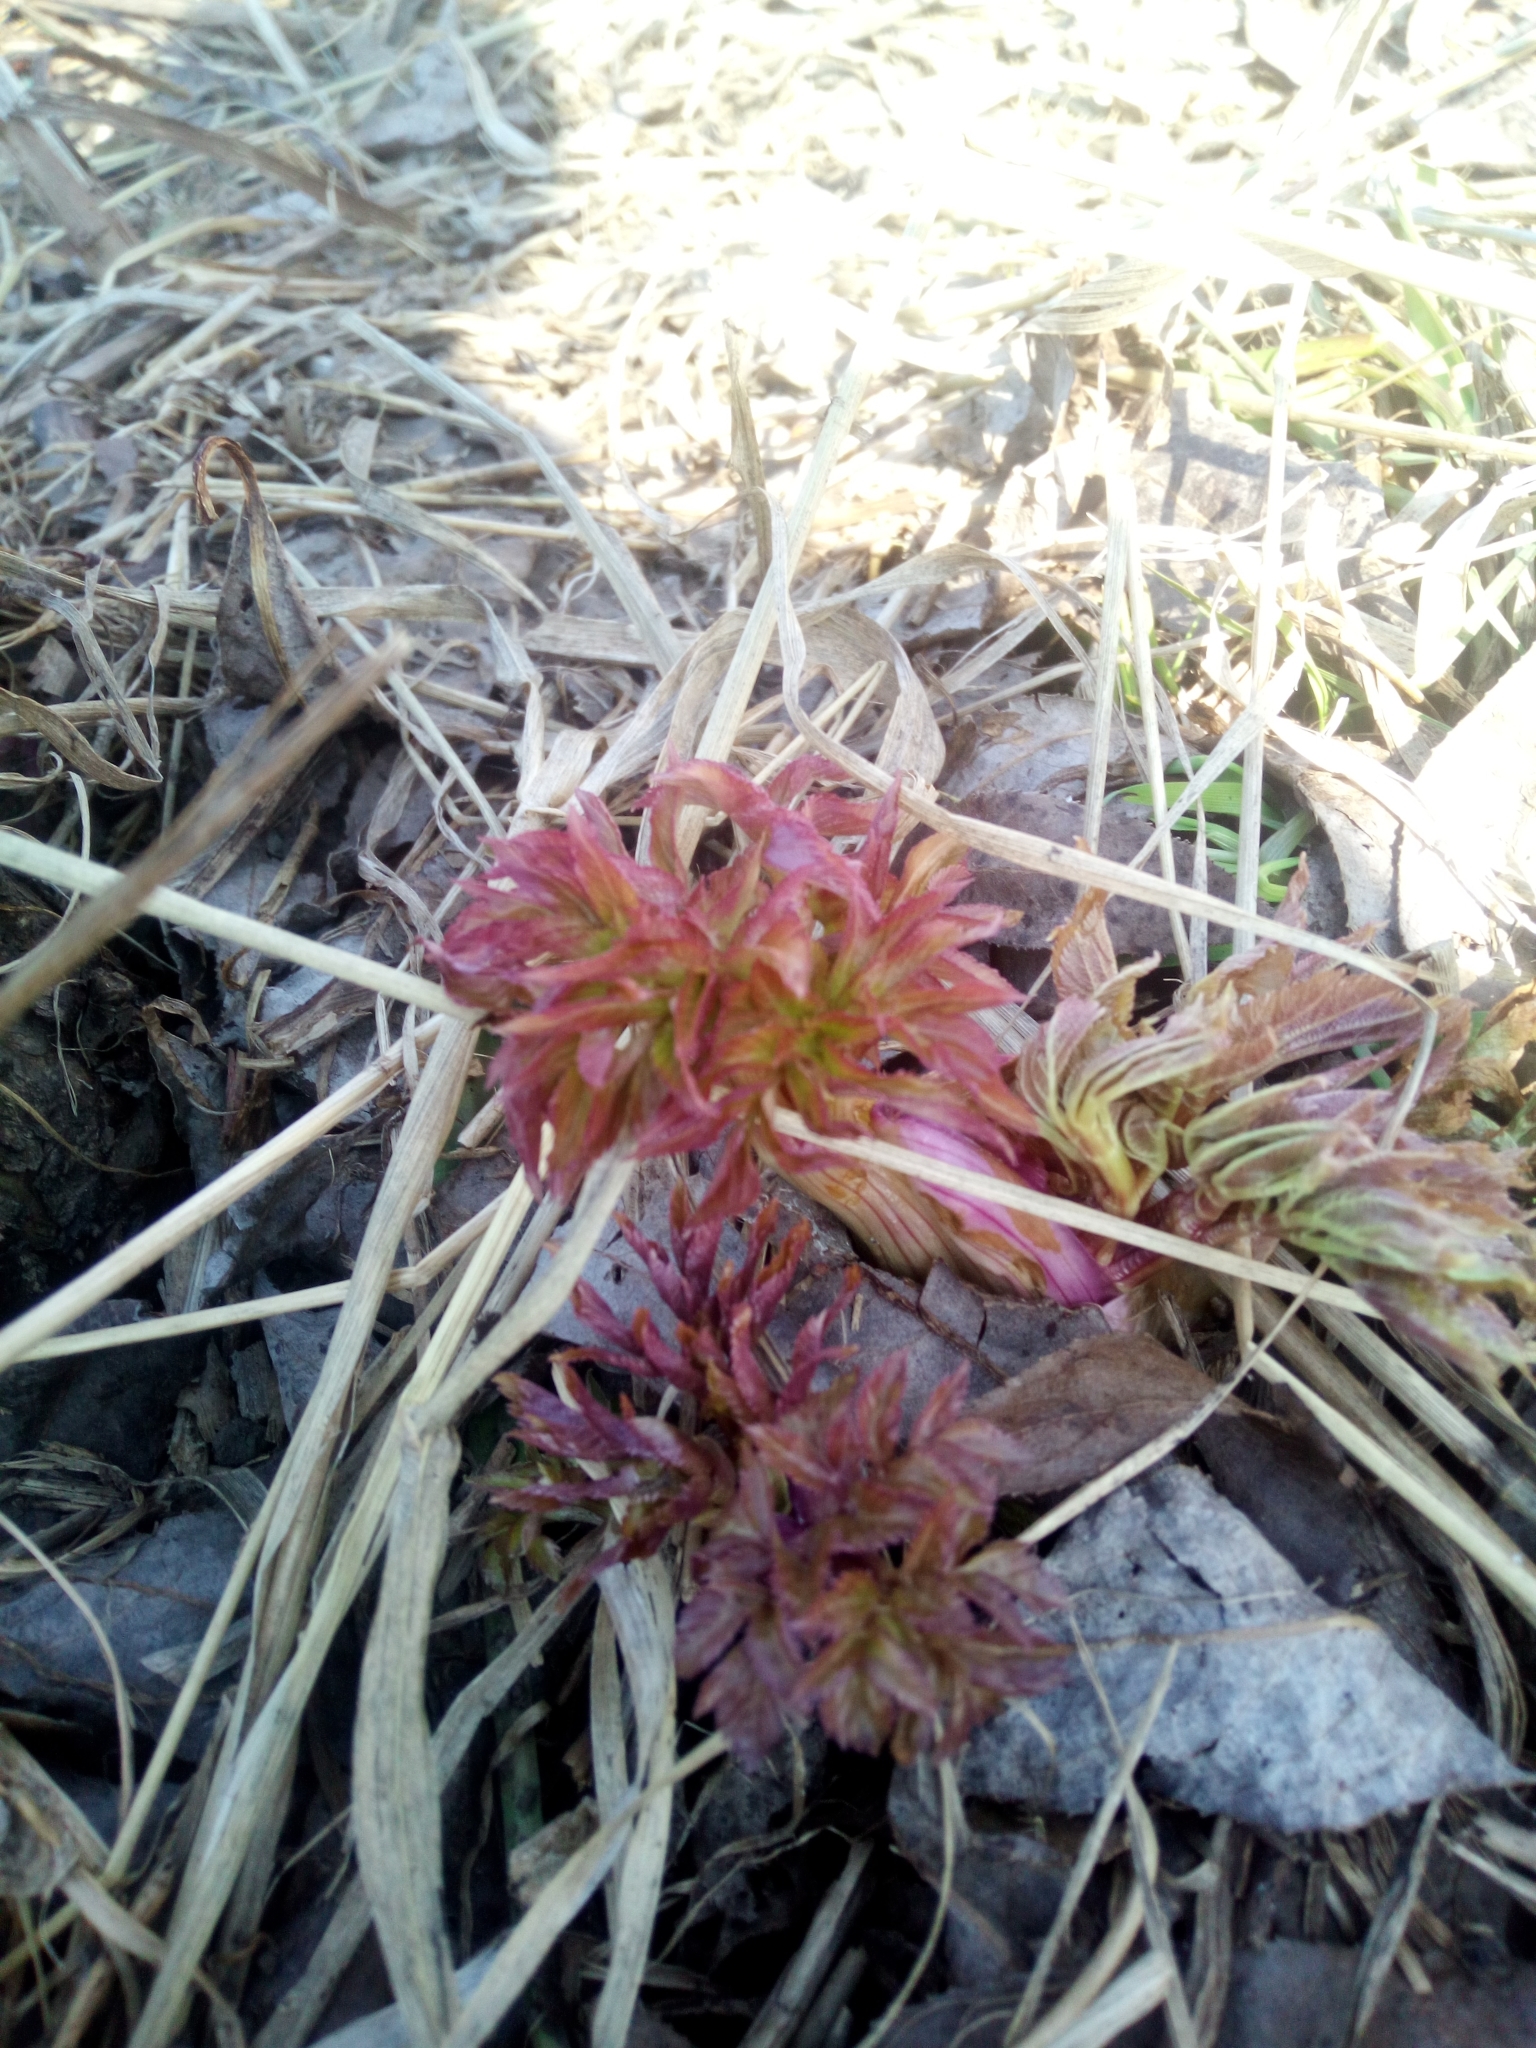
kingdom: Plantae
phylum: Tracheophyta
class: Magnoliopsida
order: Apiales
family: Apiaceae
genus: Angelica
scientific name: Angelica archangelica
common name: Garden angelica
